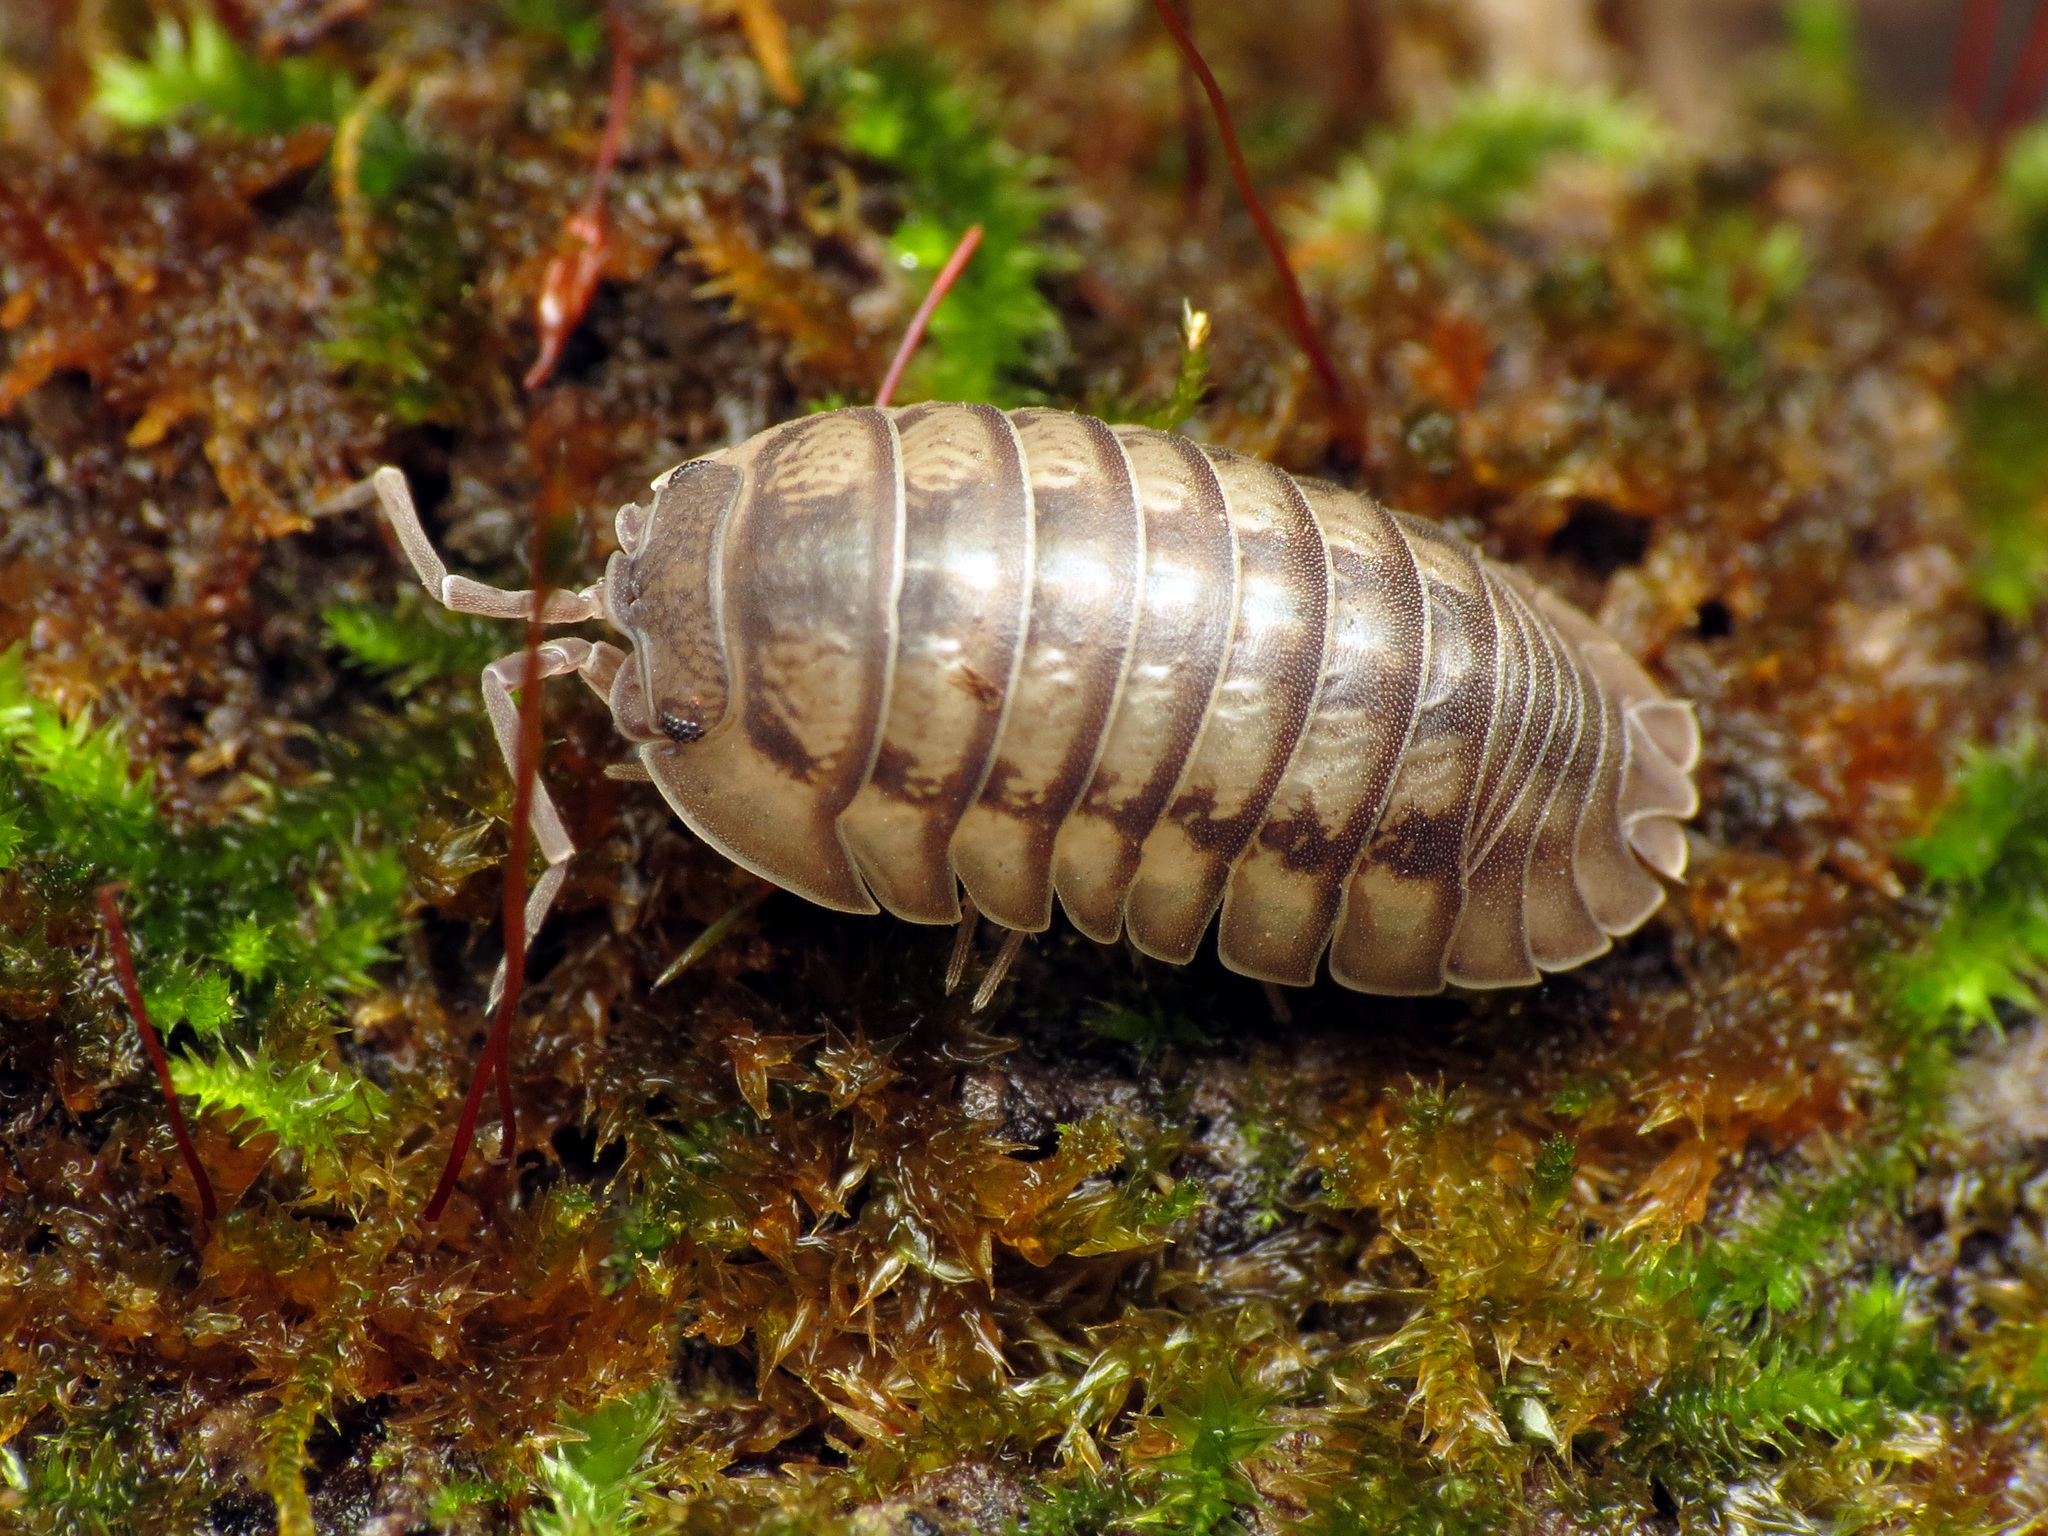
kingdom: Animalia
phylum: Arthropoda
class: Malacostraca
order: Isopoda
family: Armadillidiidae
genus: Armadillidium
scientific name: Armadillidium nasatum
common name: Isopod
